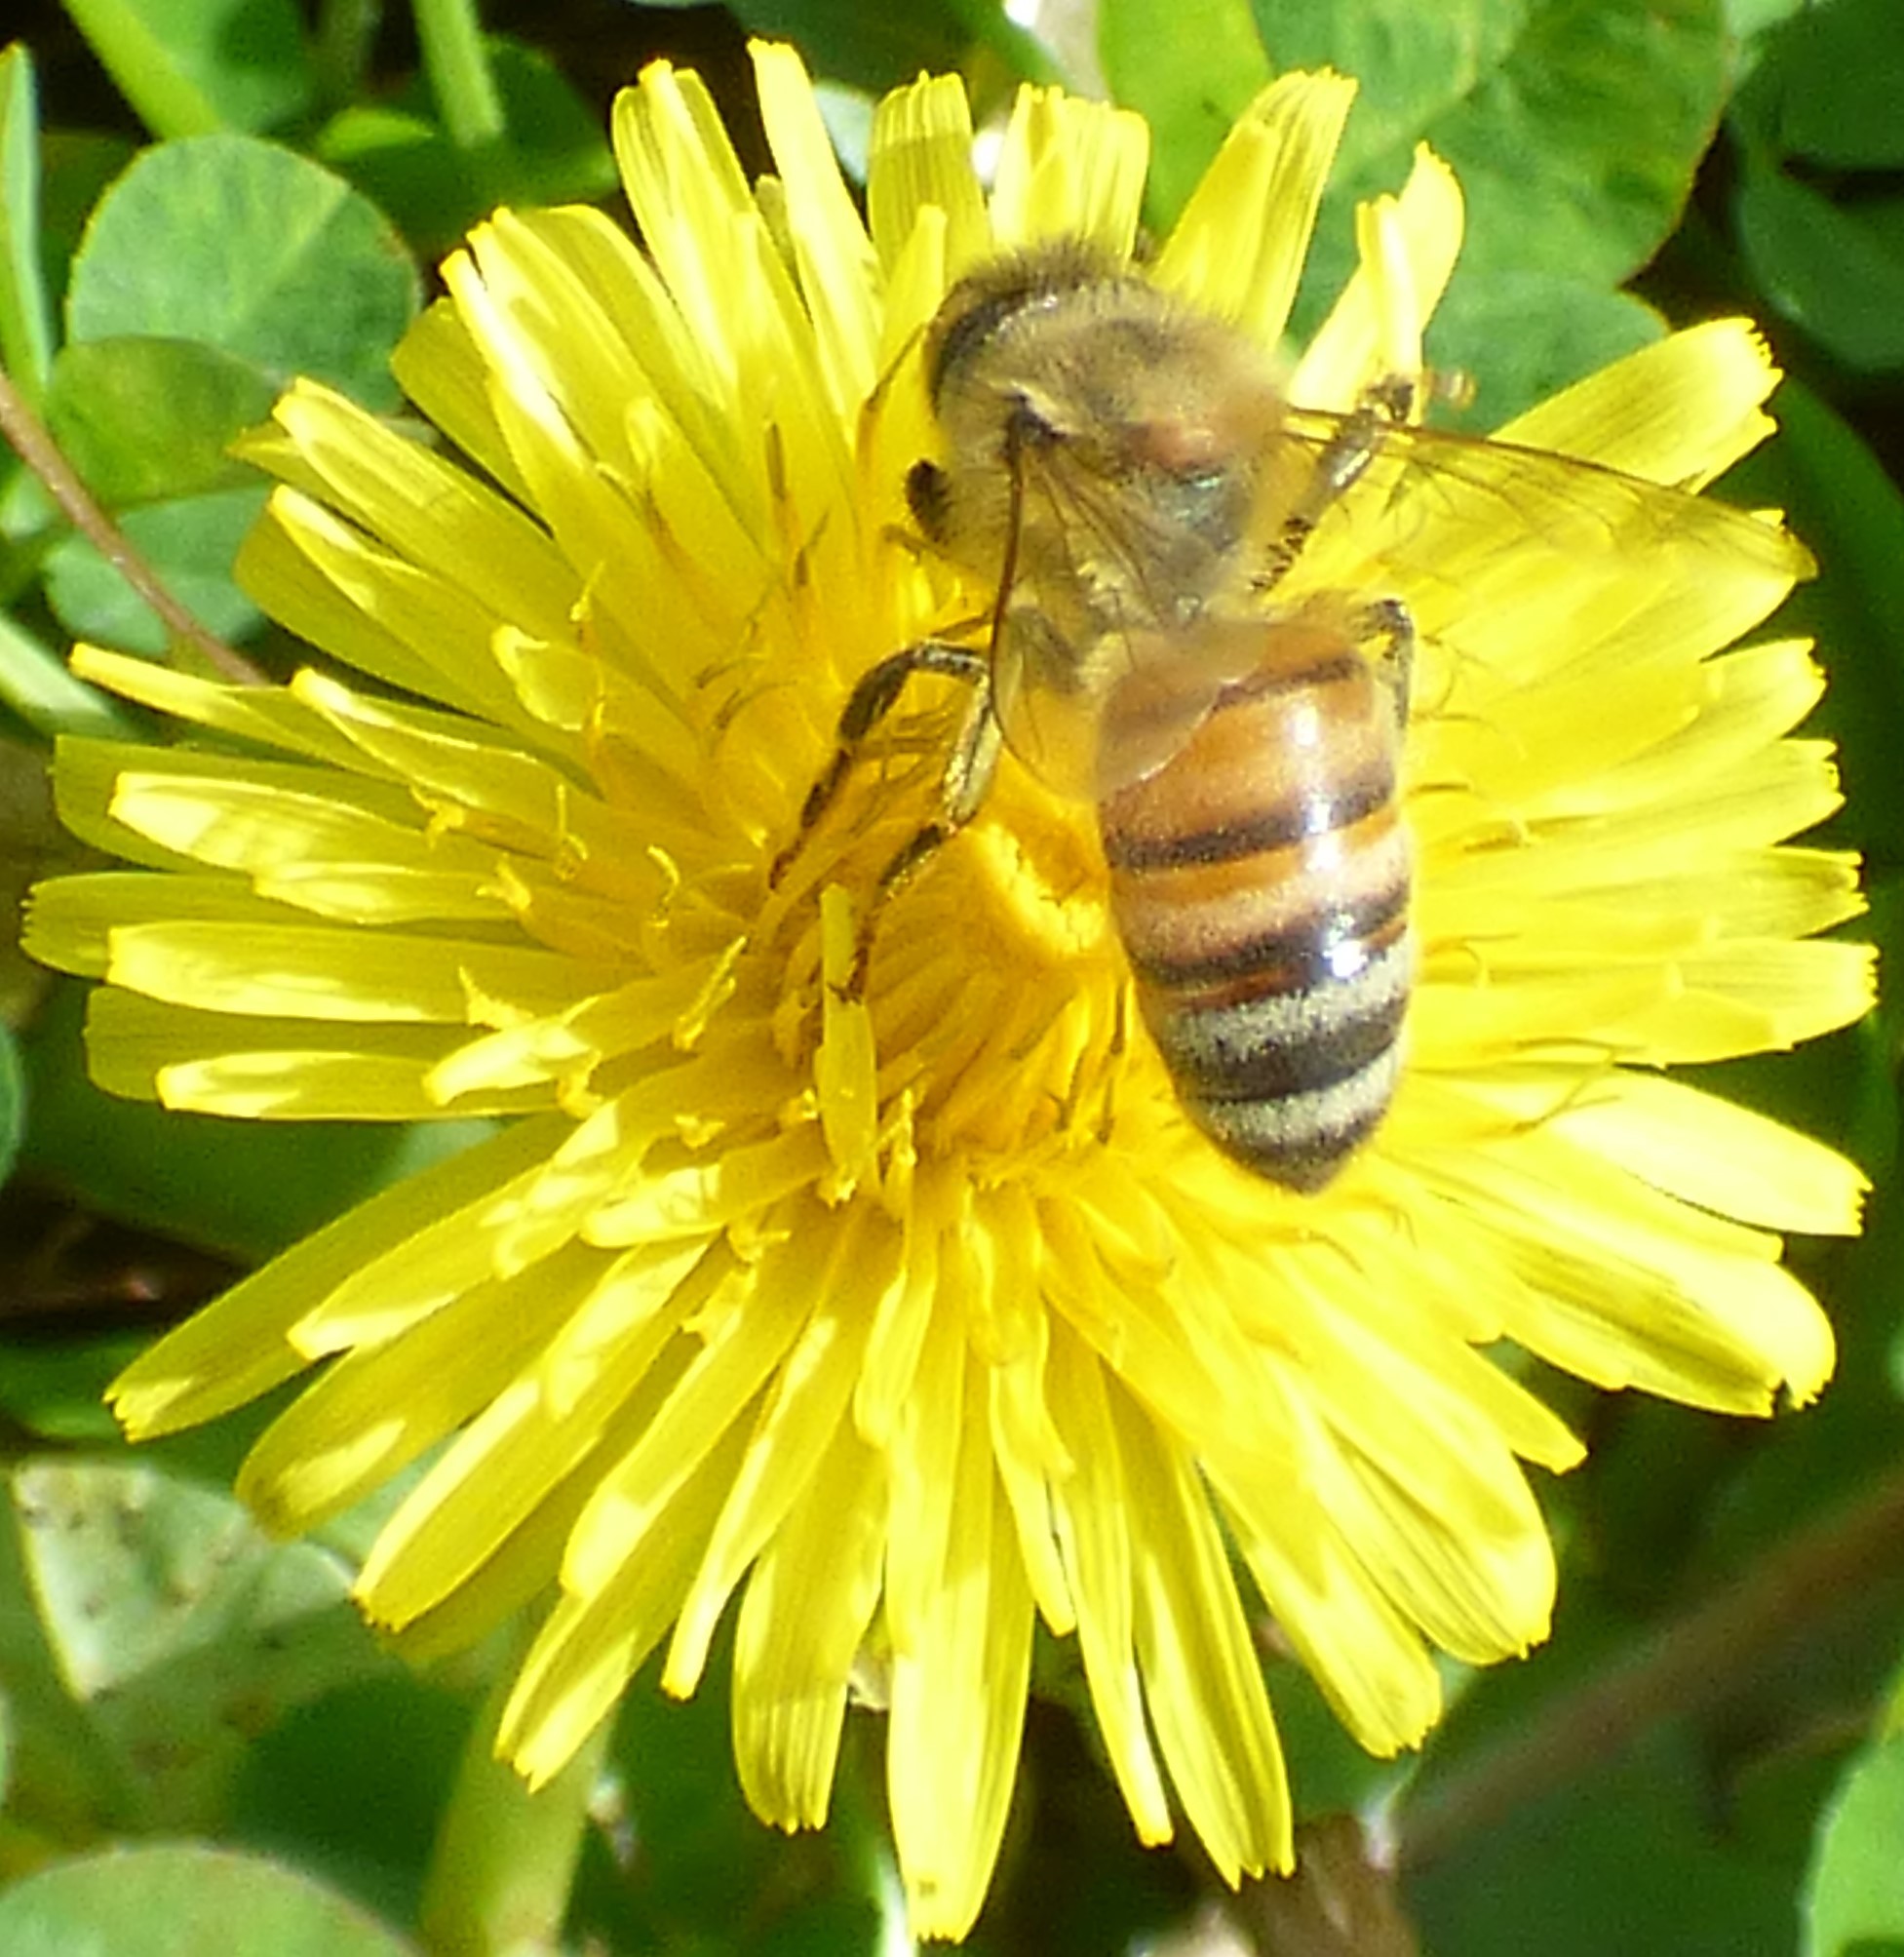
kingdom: Animalia
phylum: Arthropoda
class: Insecta
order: Hymenoptera
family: Apidae
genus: Apis
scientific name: Apis mellifera
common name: Honey bee
